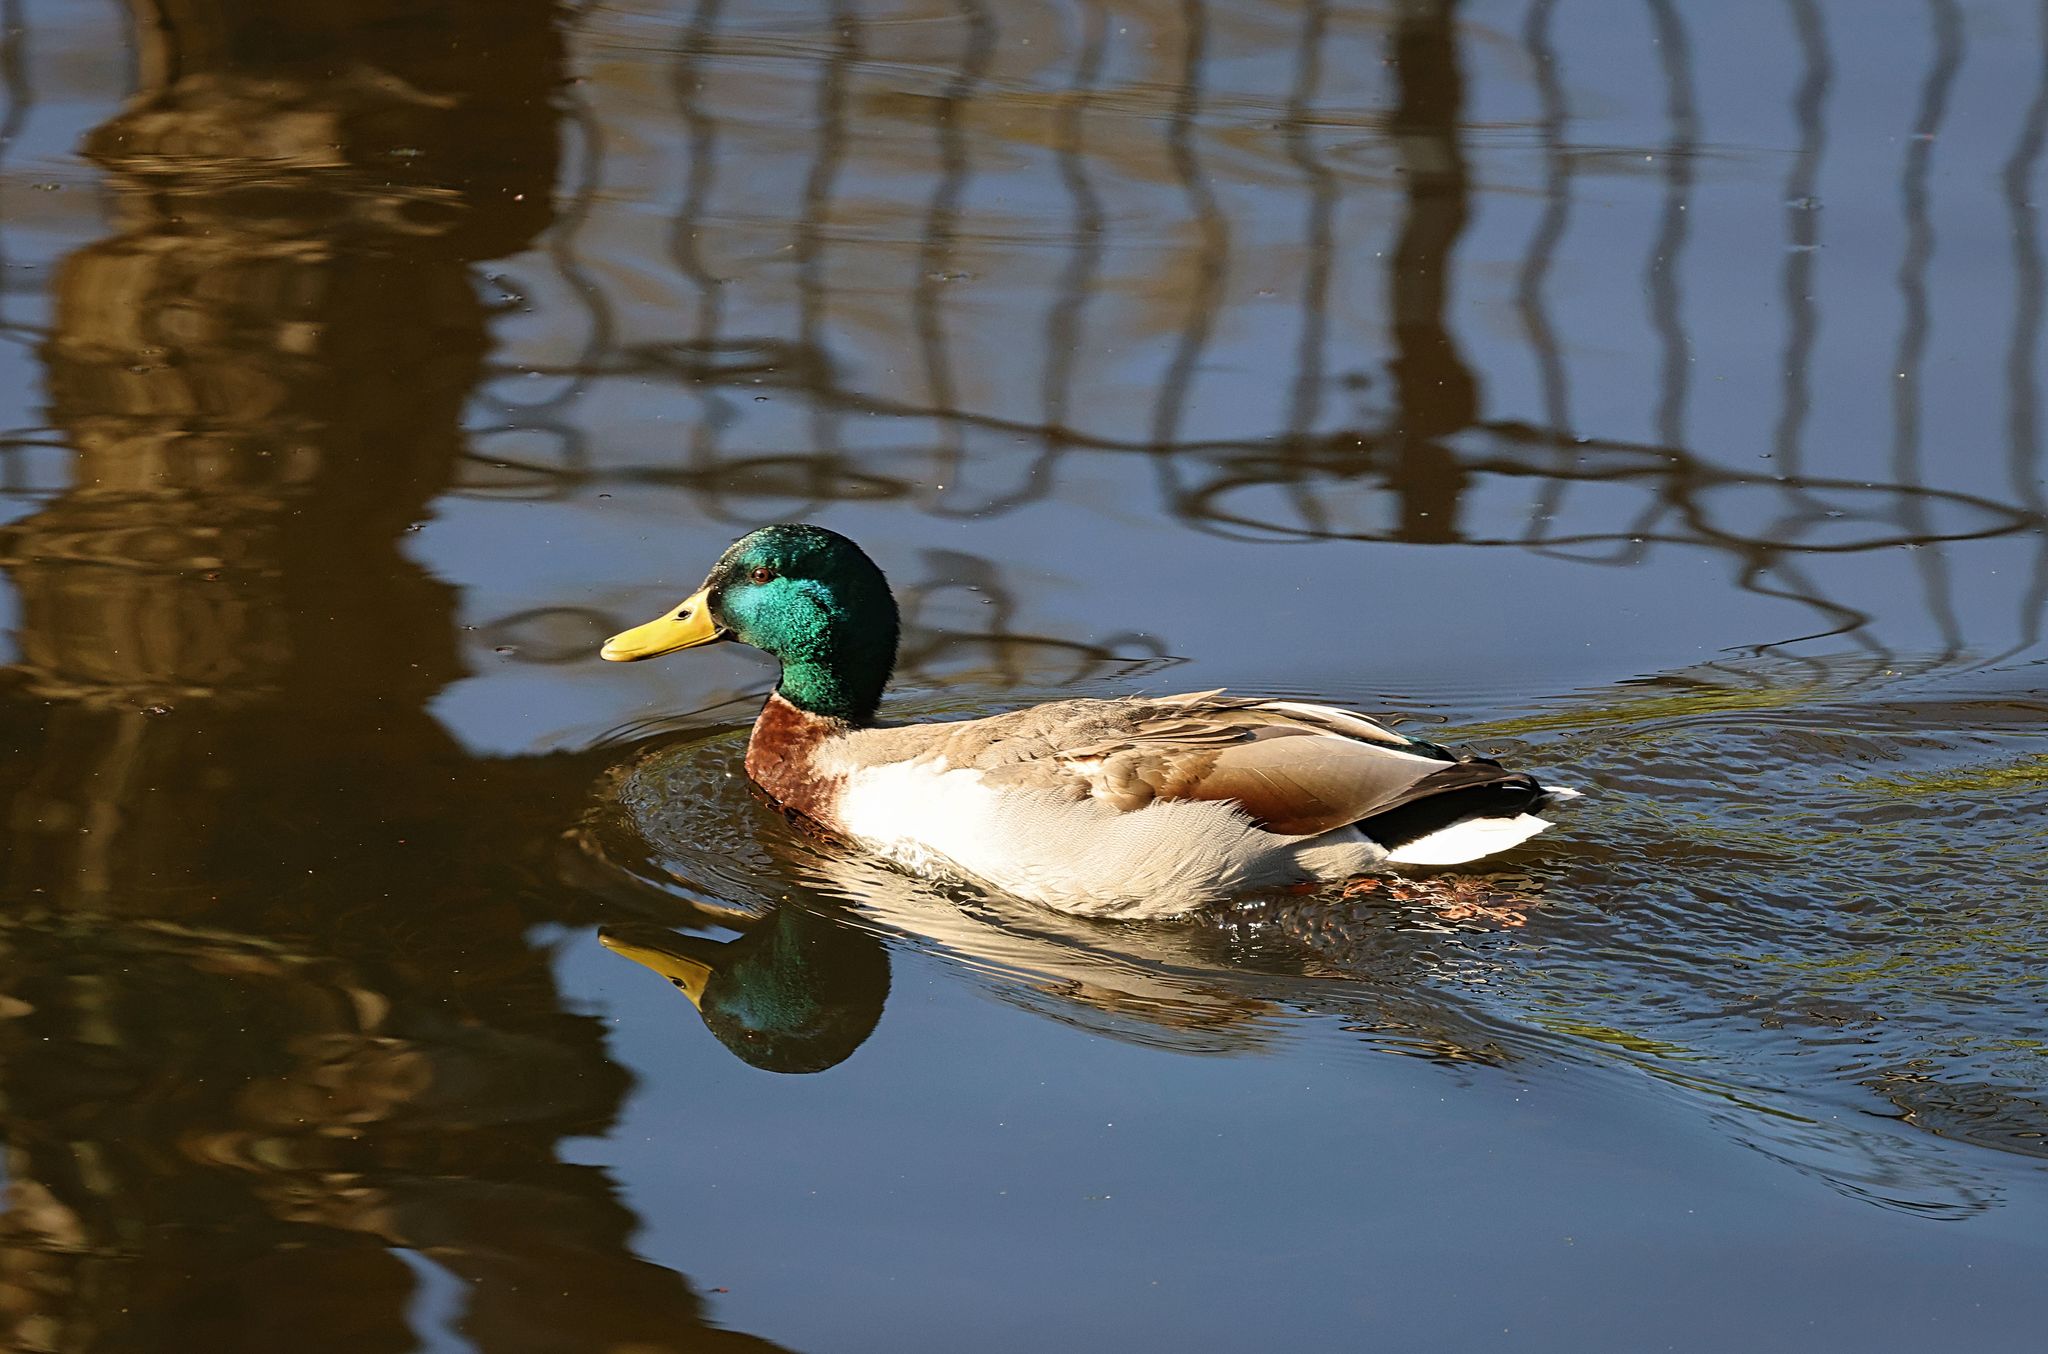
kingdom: Animalia
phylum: Chordata
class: Aves
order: Anseriformes
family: Anatidae
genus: Anas
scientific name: Anas platyrhynchos
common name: Mallard
